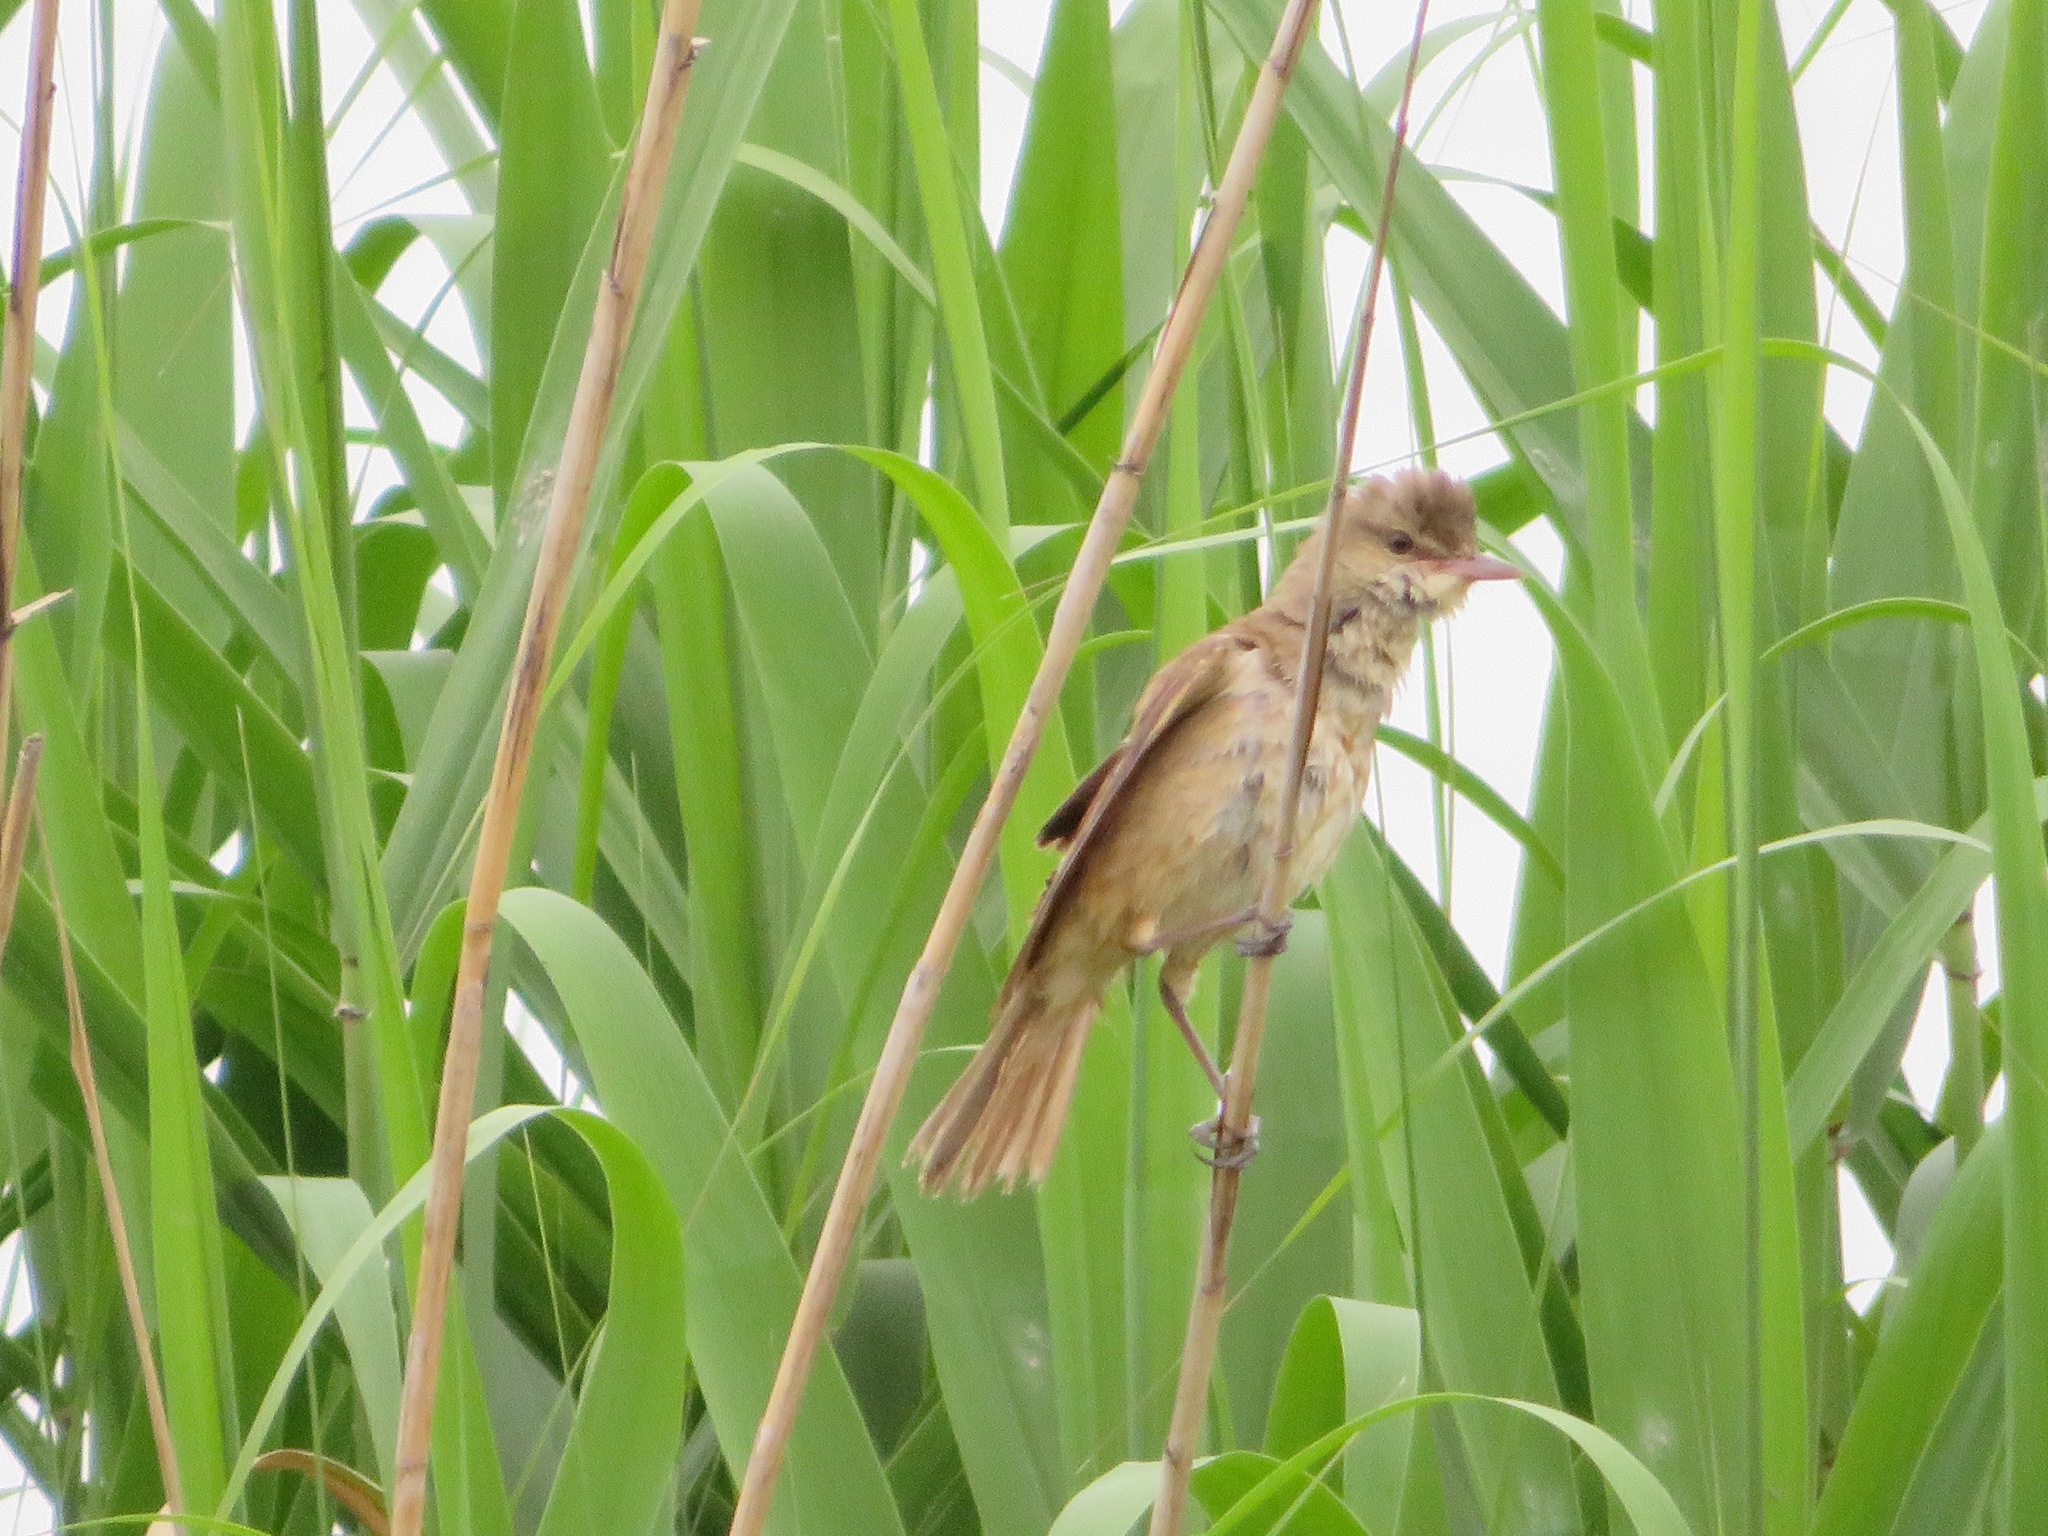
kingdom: Animalia
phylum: Chordata
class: Aves
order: Passeriformes
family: Acrocephalidae
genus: Acrocephalus
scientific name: Acrocephalus orientalis
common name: Oriental reed warbler
